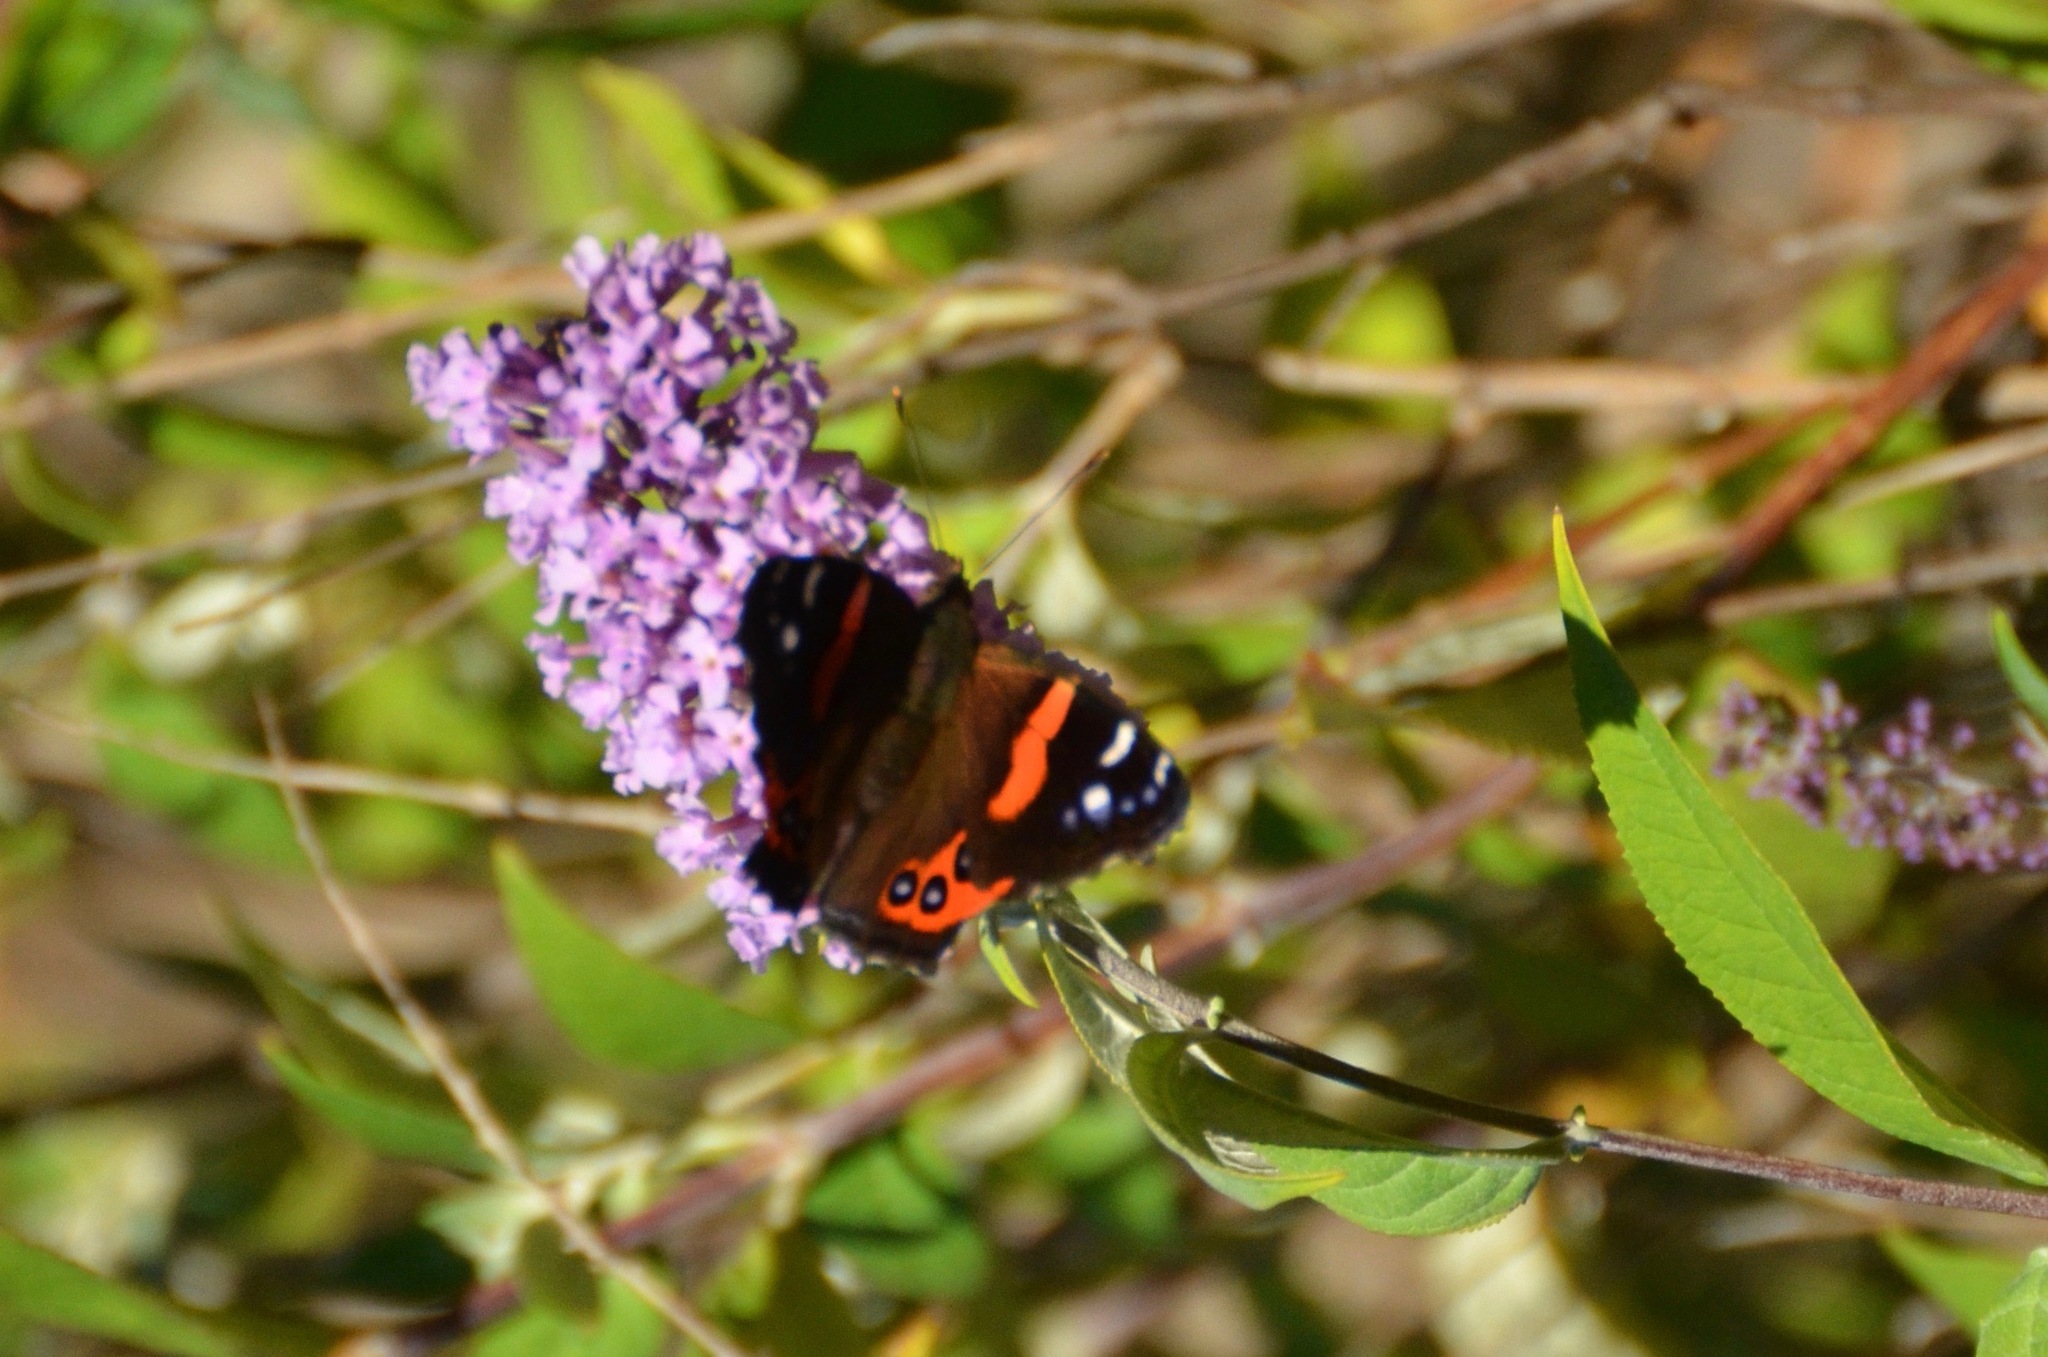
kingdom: Animalia
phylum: Arthropoda
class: Insecta
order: Lepidoptera
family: Nymphalidae
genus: Vanessa
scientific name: Vanessa gonerilla
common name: New zealand red admiral
